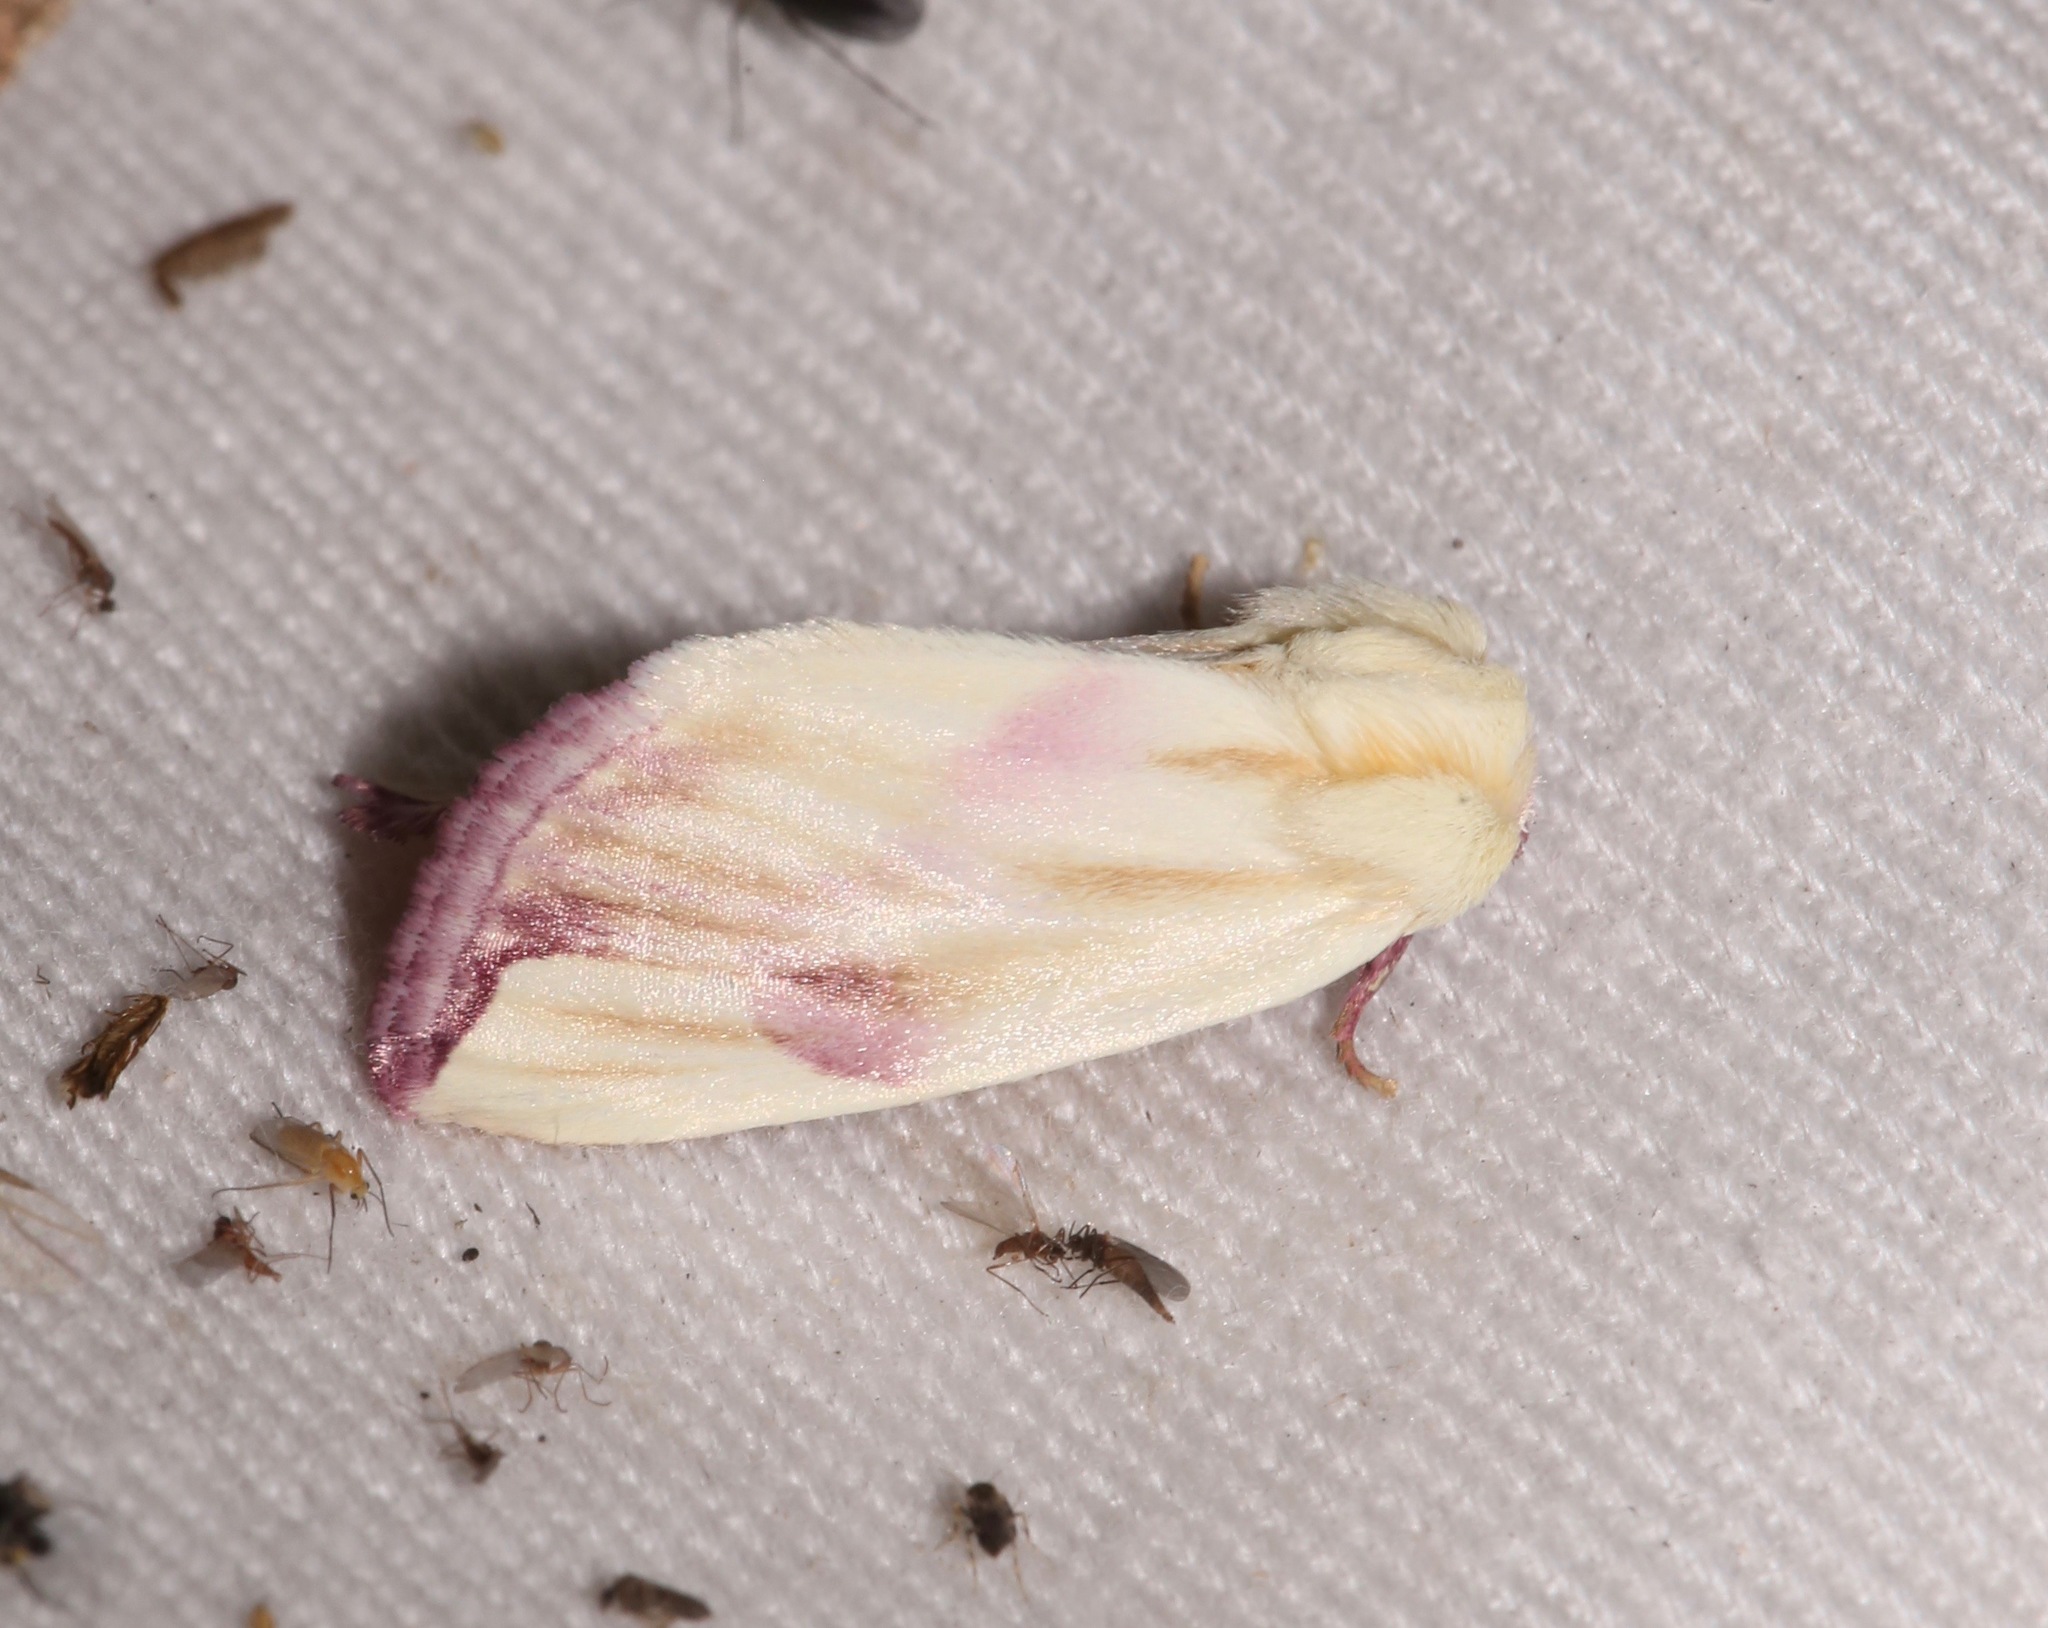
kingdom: Animalia
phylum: Arthropoda
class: Insecta
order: Lepidoptera
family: Noctuidae
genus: Thurberiphaga
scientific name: Thurberiphaga diffusa
